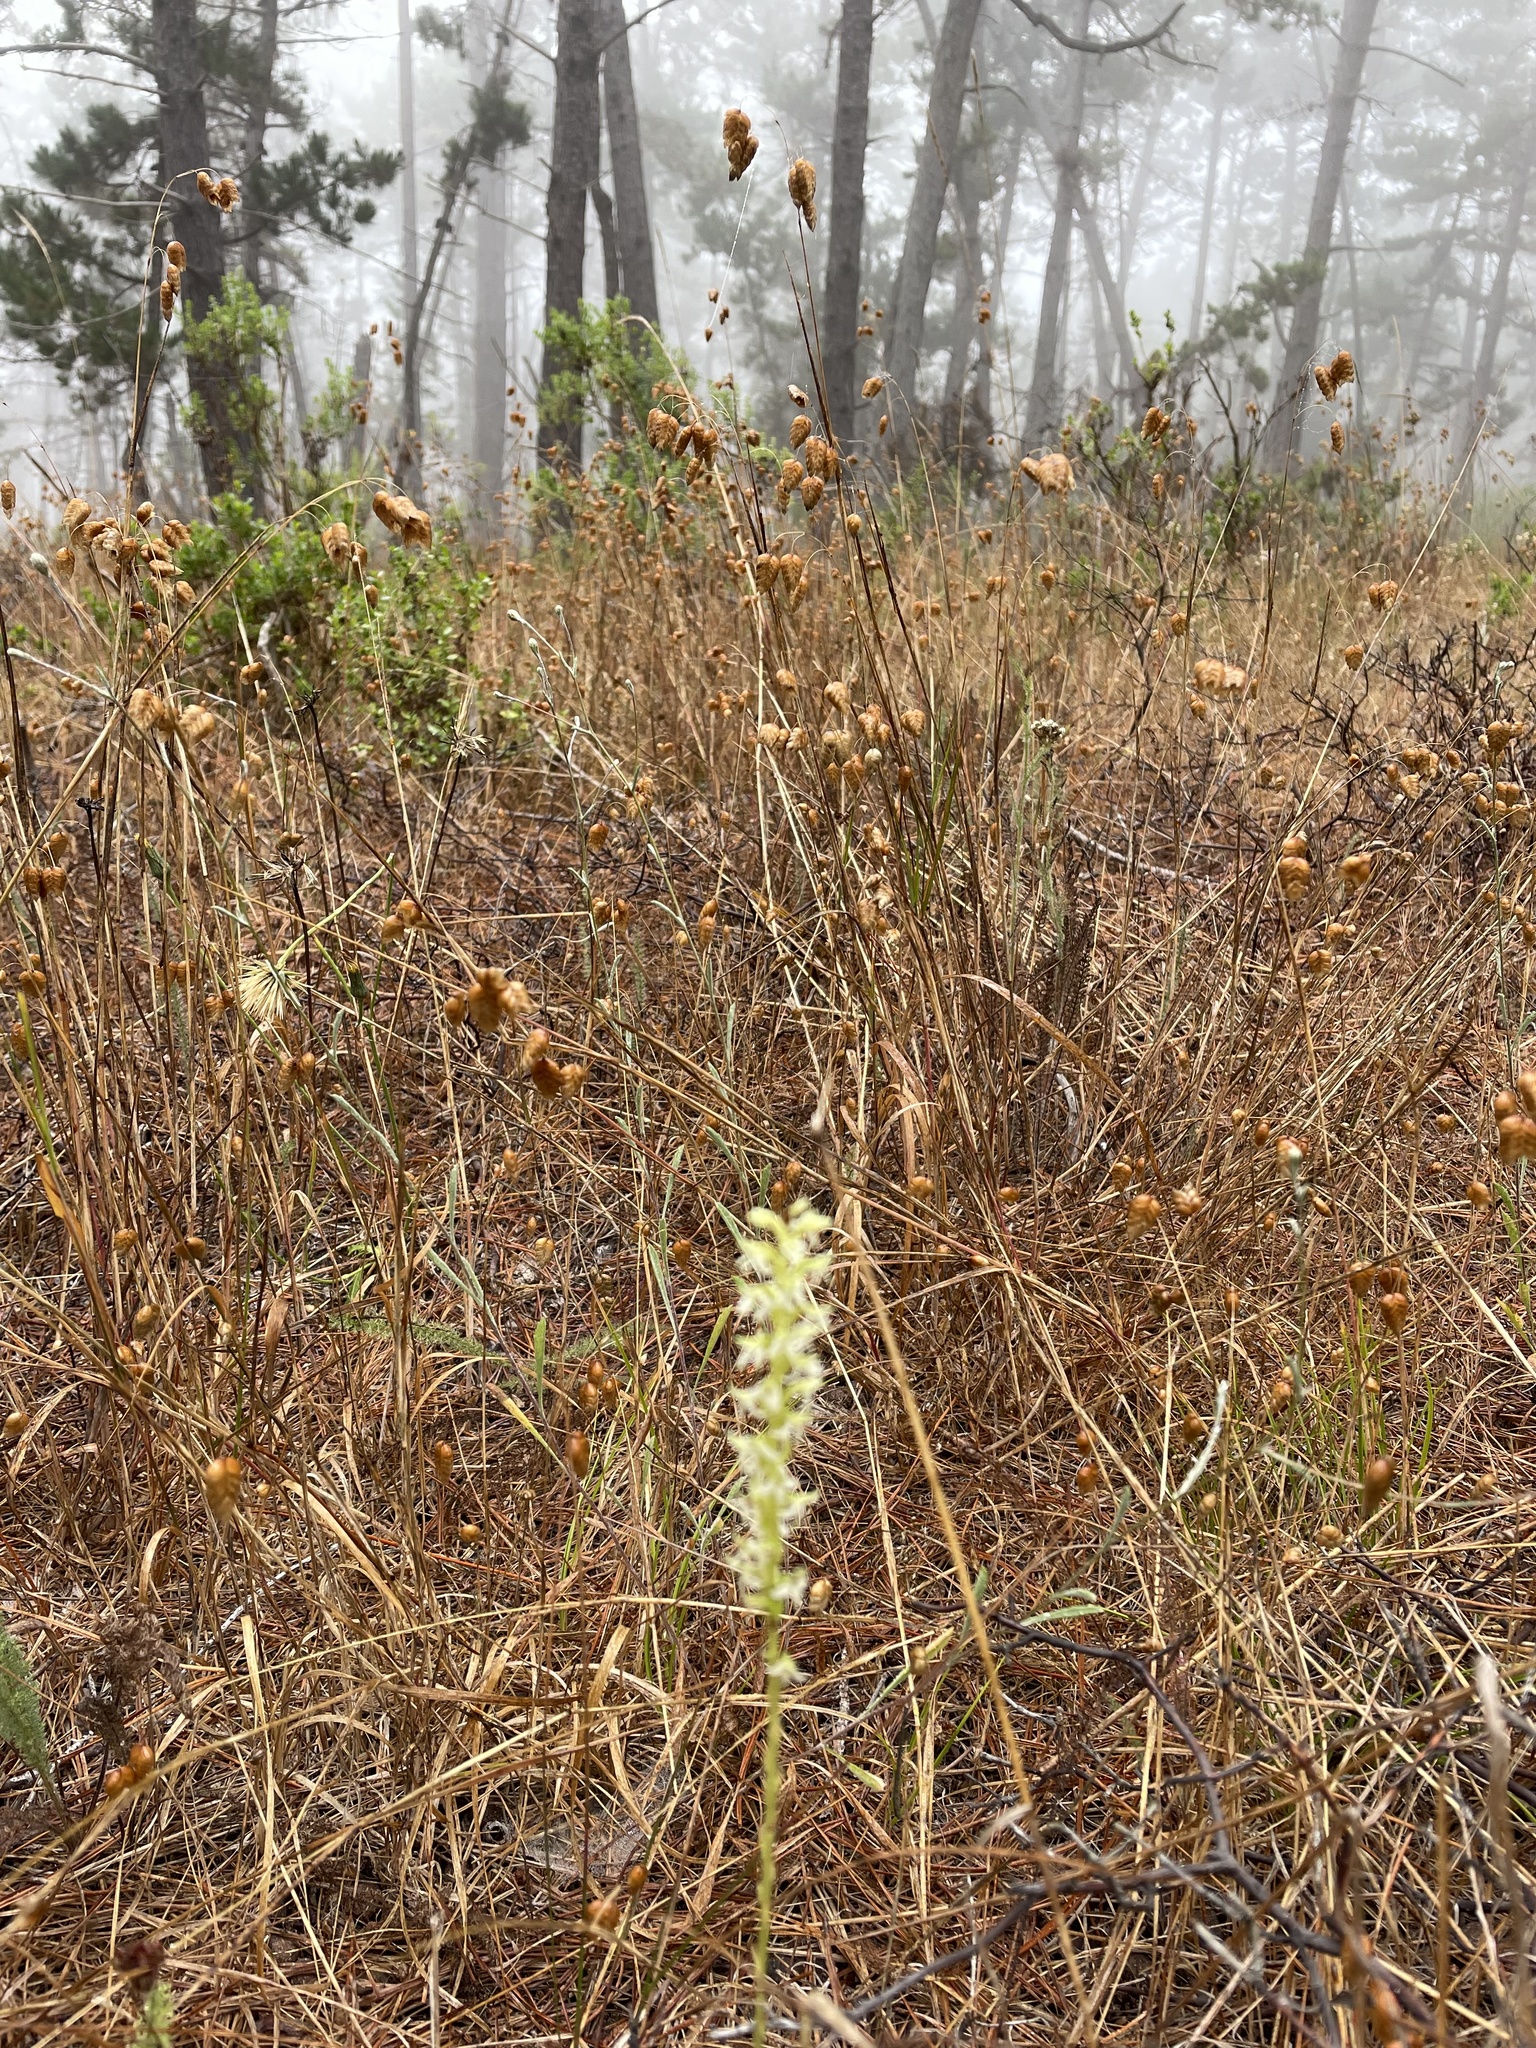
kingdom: Plantae
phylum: Tracheophyta
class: Liliopsida
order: Asparagales
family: Orchidaceae
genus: Platanthera
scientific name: Platanthera yadonii
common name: Yadon’s piperia
